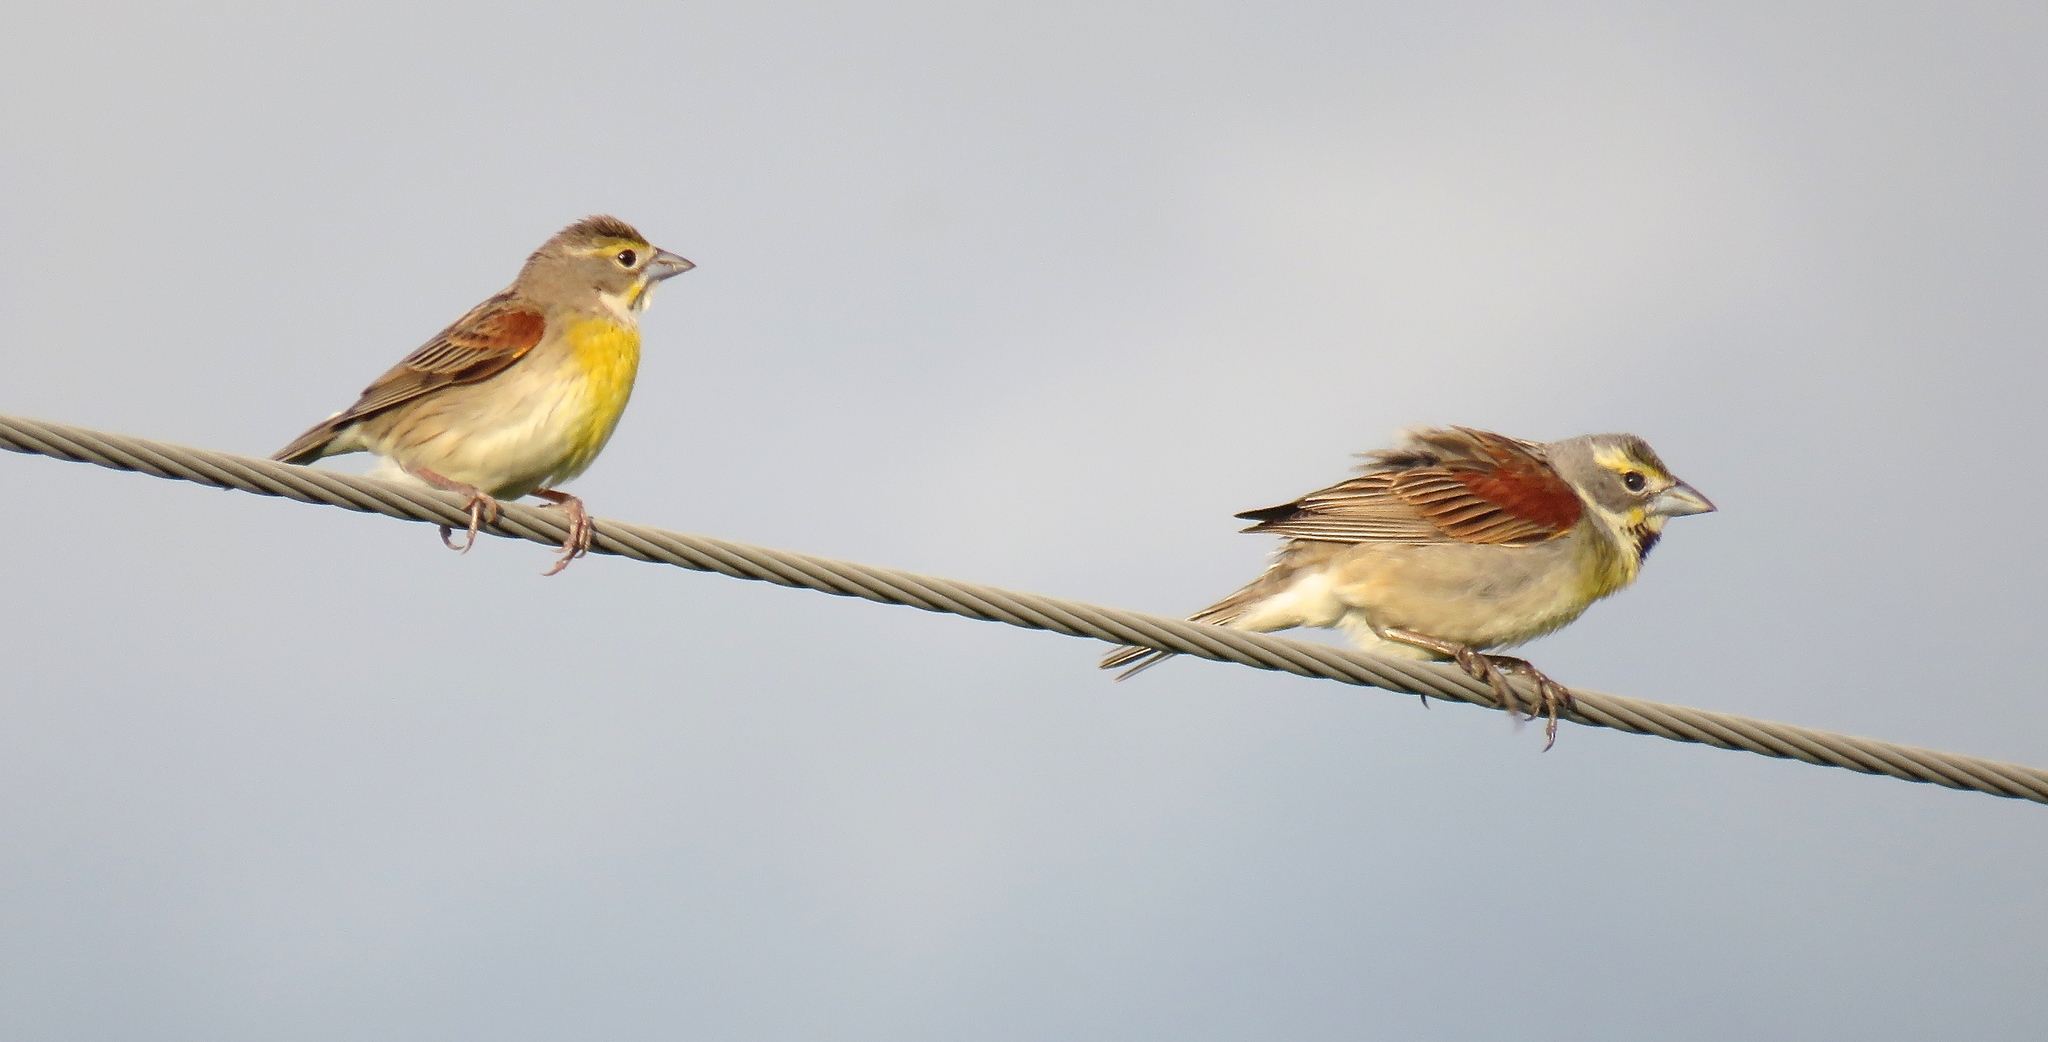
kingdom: Animalia
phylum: Chordata
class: Aves
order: Passeriformes
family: Cardinalidae
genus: Spiza
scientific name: Spiza americana
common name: Dickcissel
